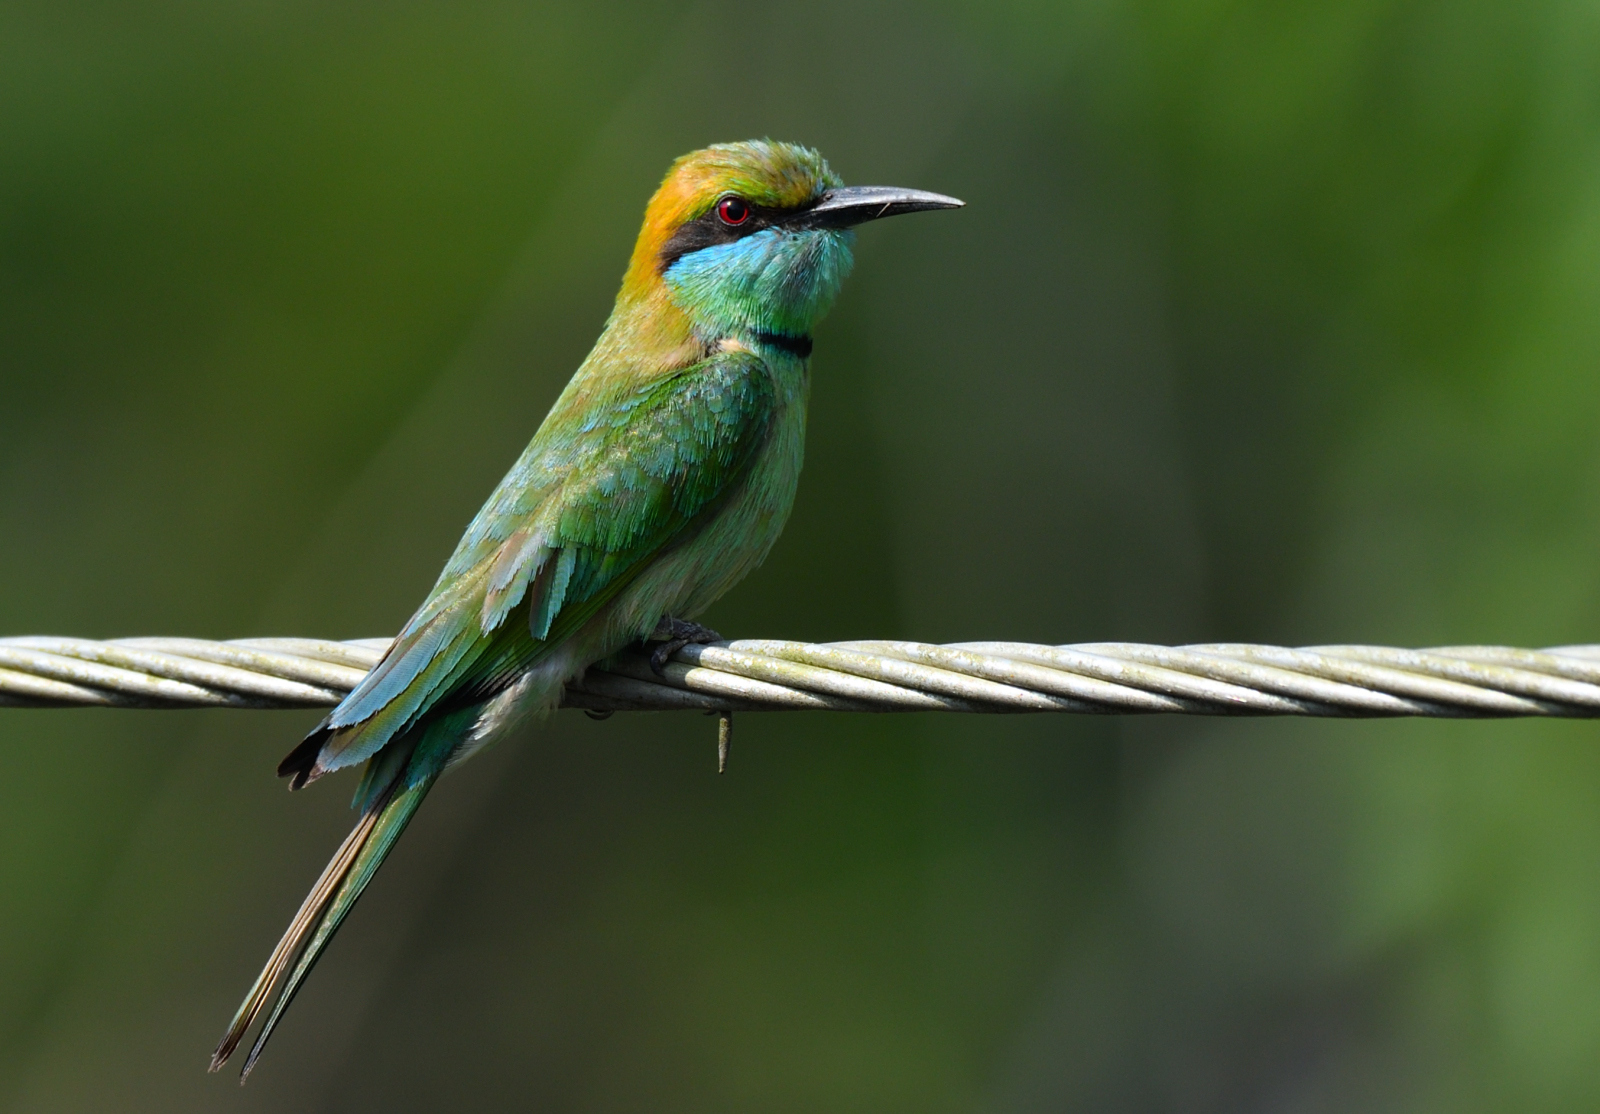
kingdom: Animalia
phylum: Chordata
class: Aves
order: Coraciiformes
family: Meropidae
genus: Merops
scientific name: Merops orientalis
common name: Green bee-eater
